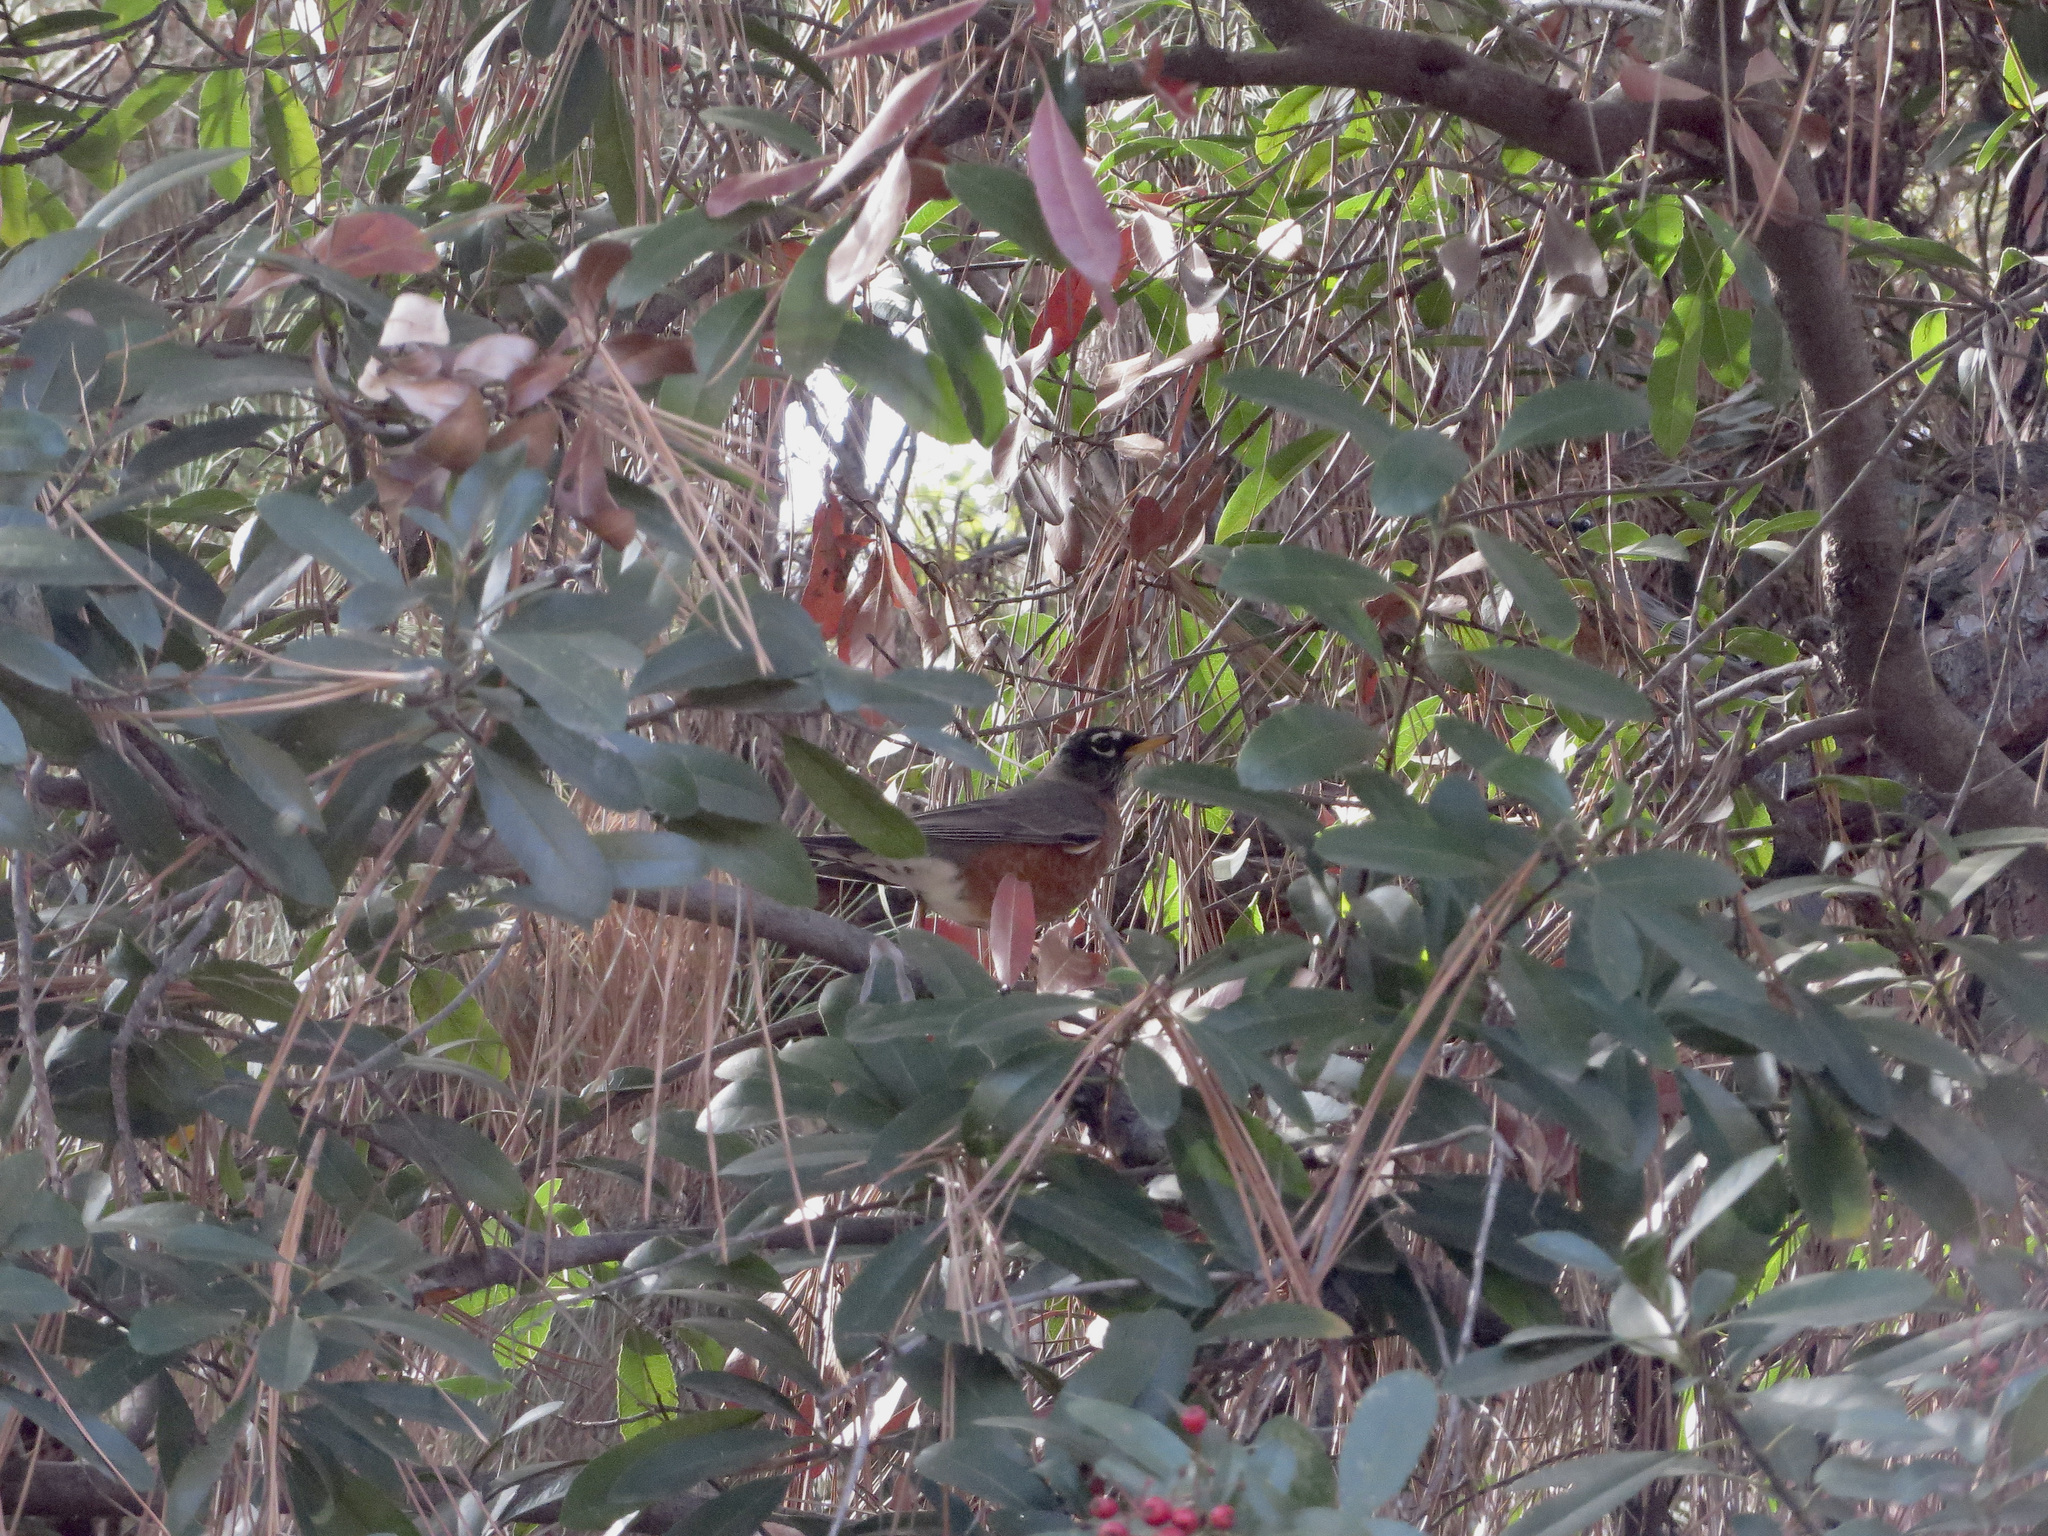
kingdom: Animalia
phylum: Chordata
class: Aves
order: Passeriformes
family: Turdidae
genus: Turdus
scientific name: Turdus migratorius
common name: American robin
